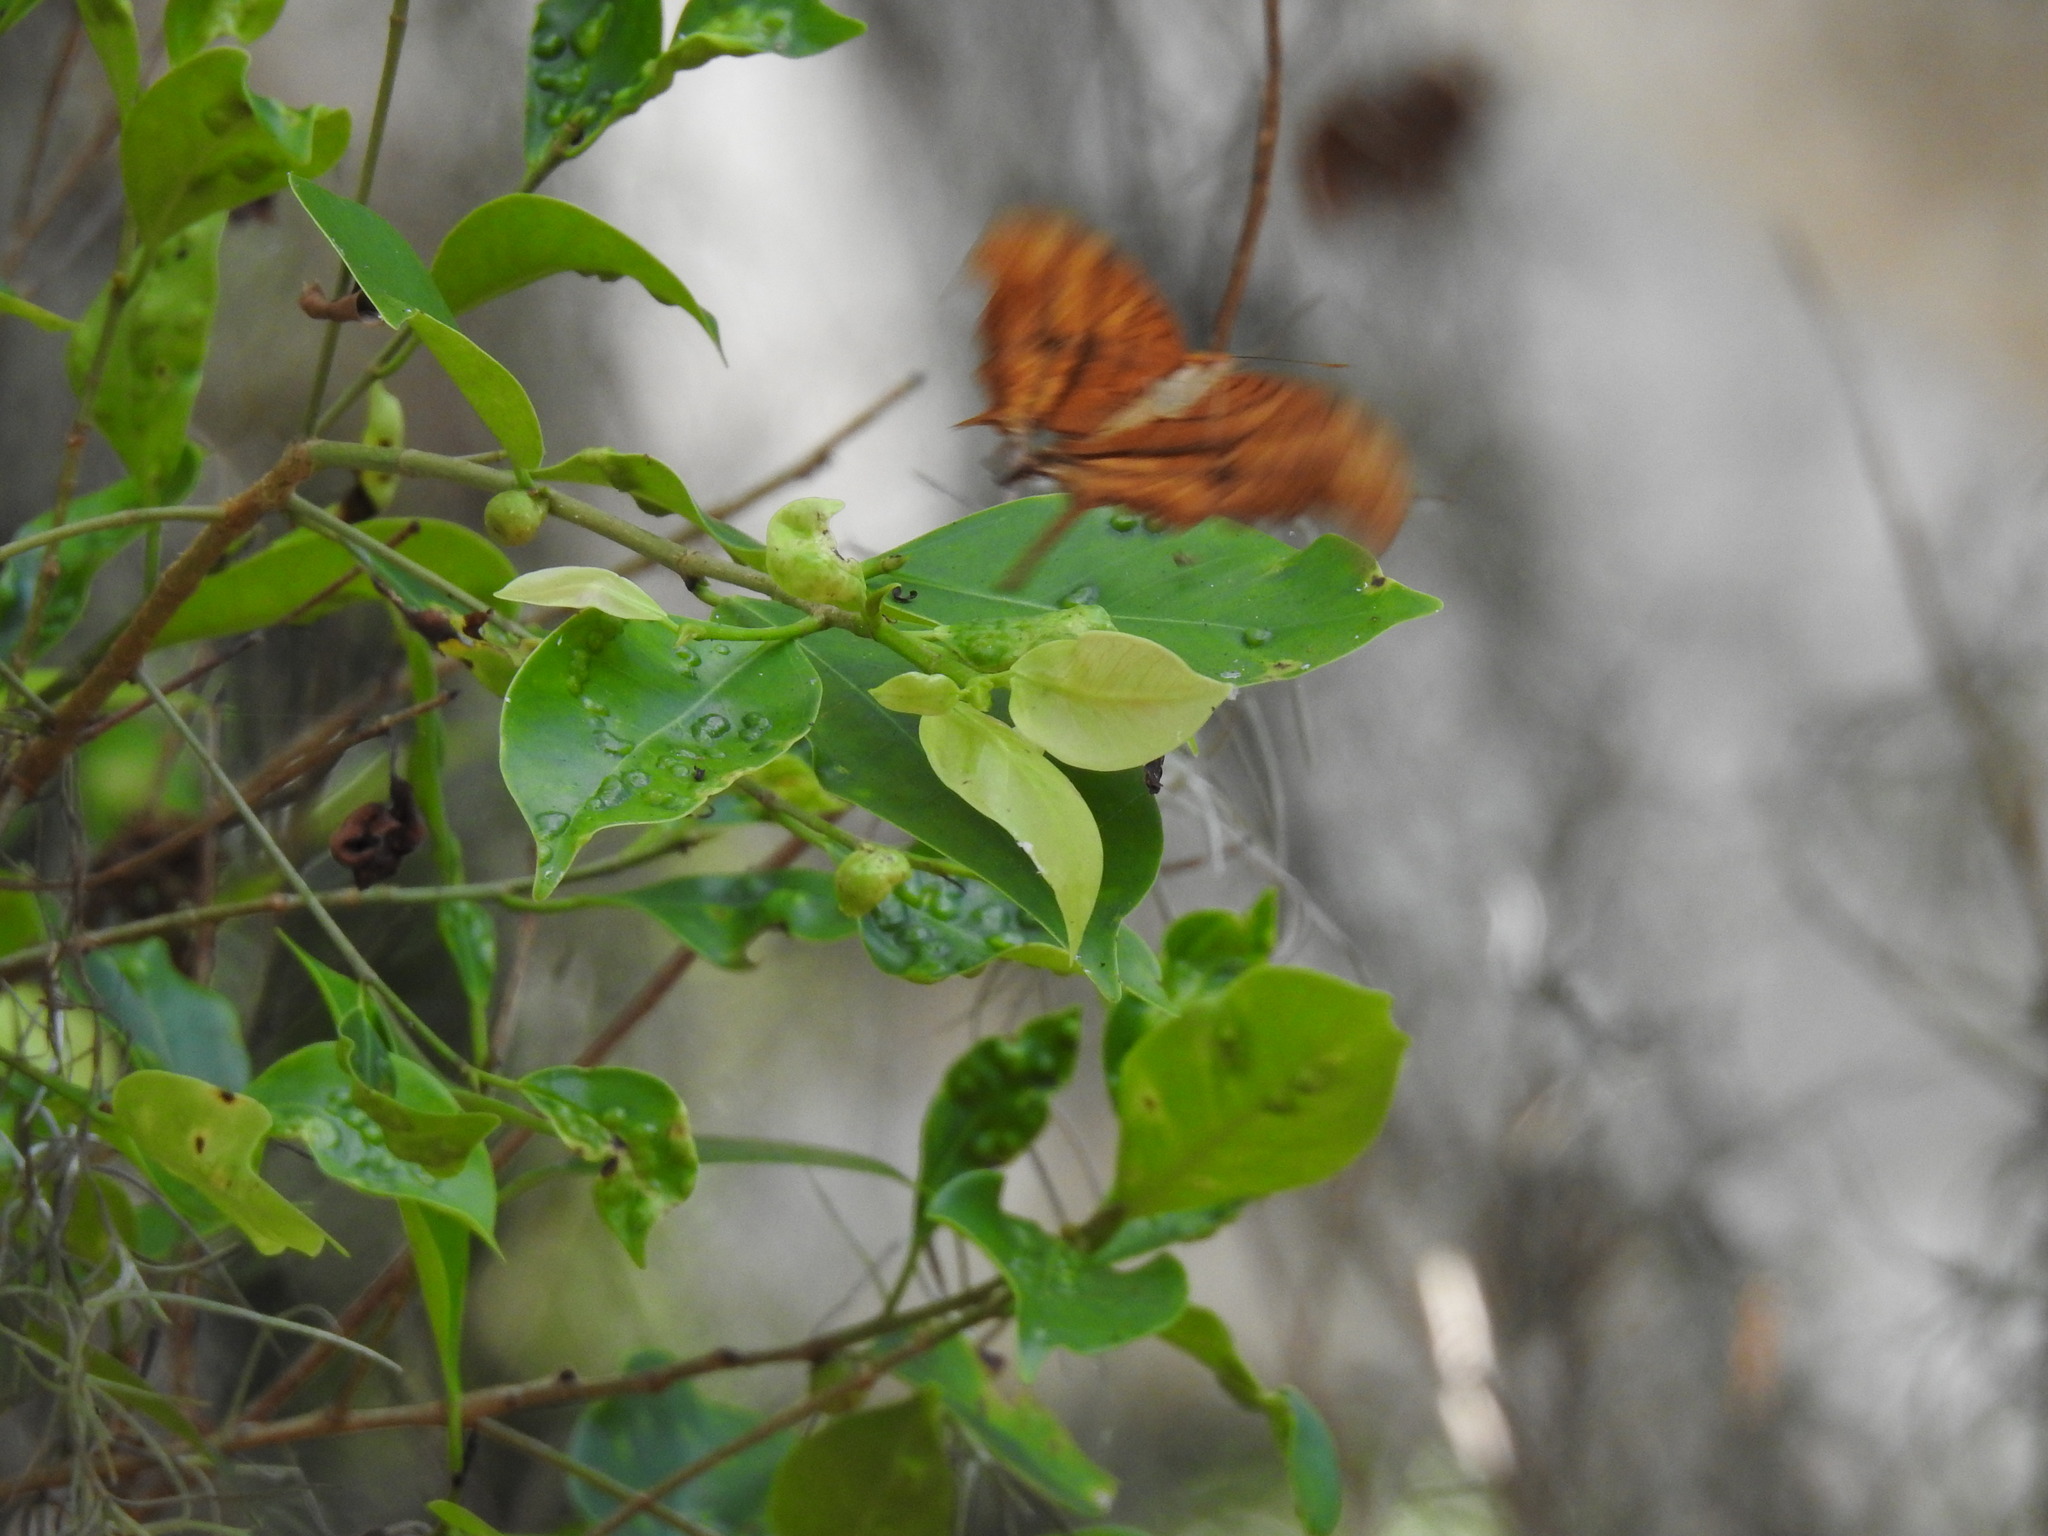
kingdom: Animalia
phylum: Arthropoda
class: Insecta
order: Lepidoptera
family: Nymphalidae
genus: Marpesia
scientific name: Marpesia petreus
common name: Red dagger wing
